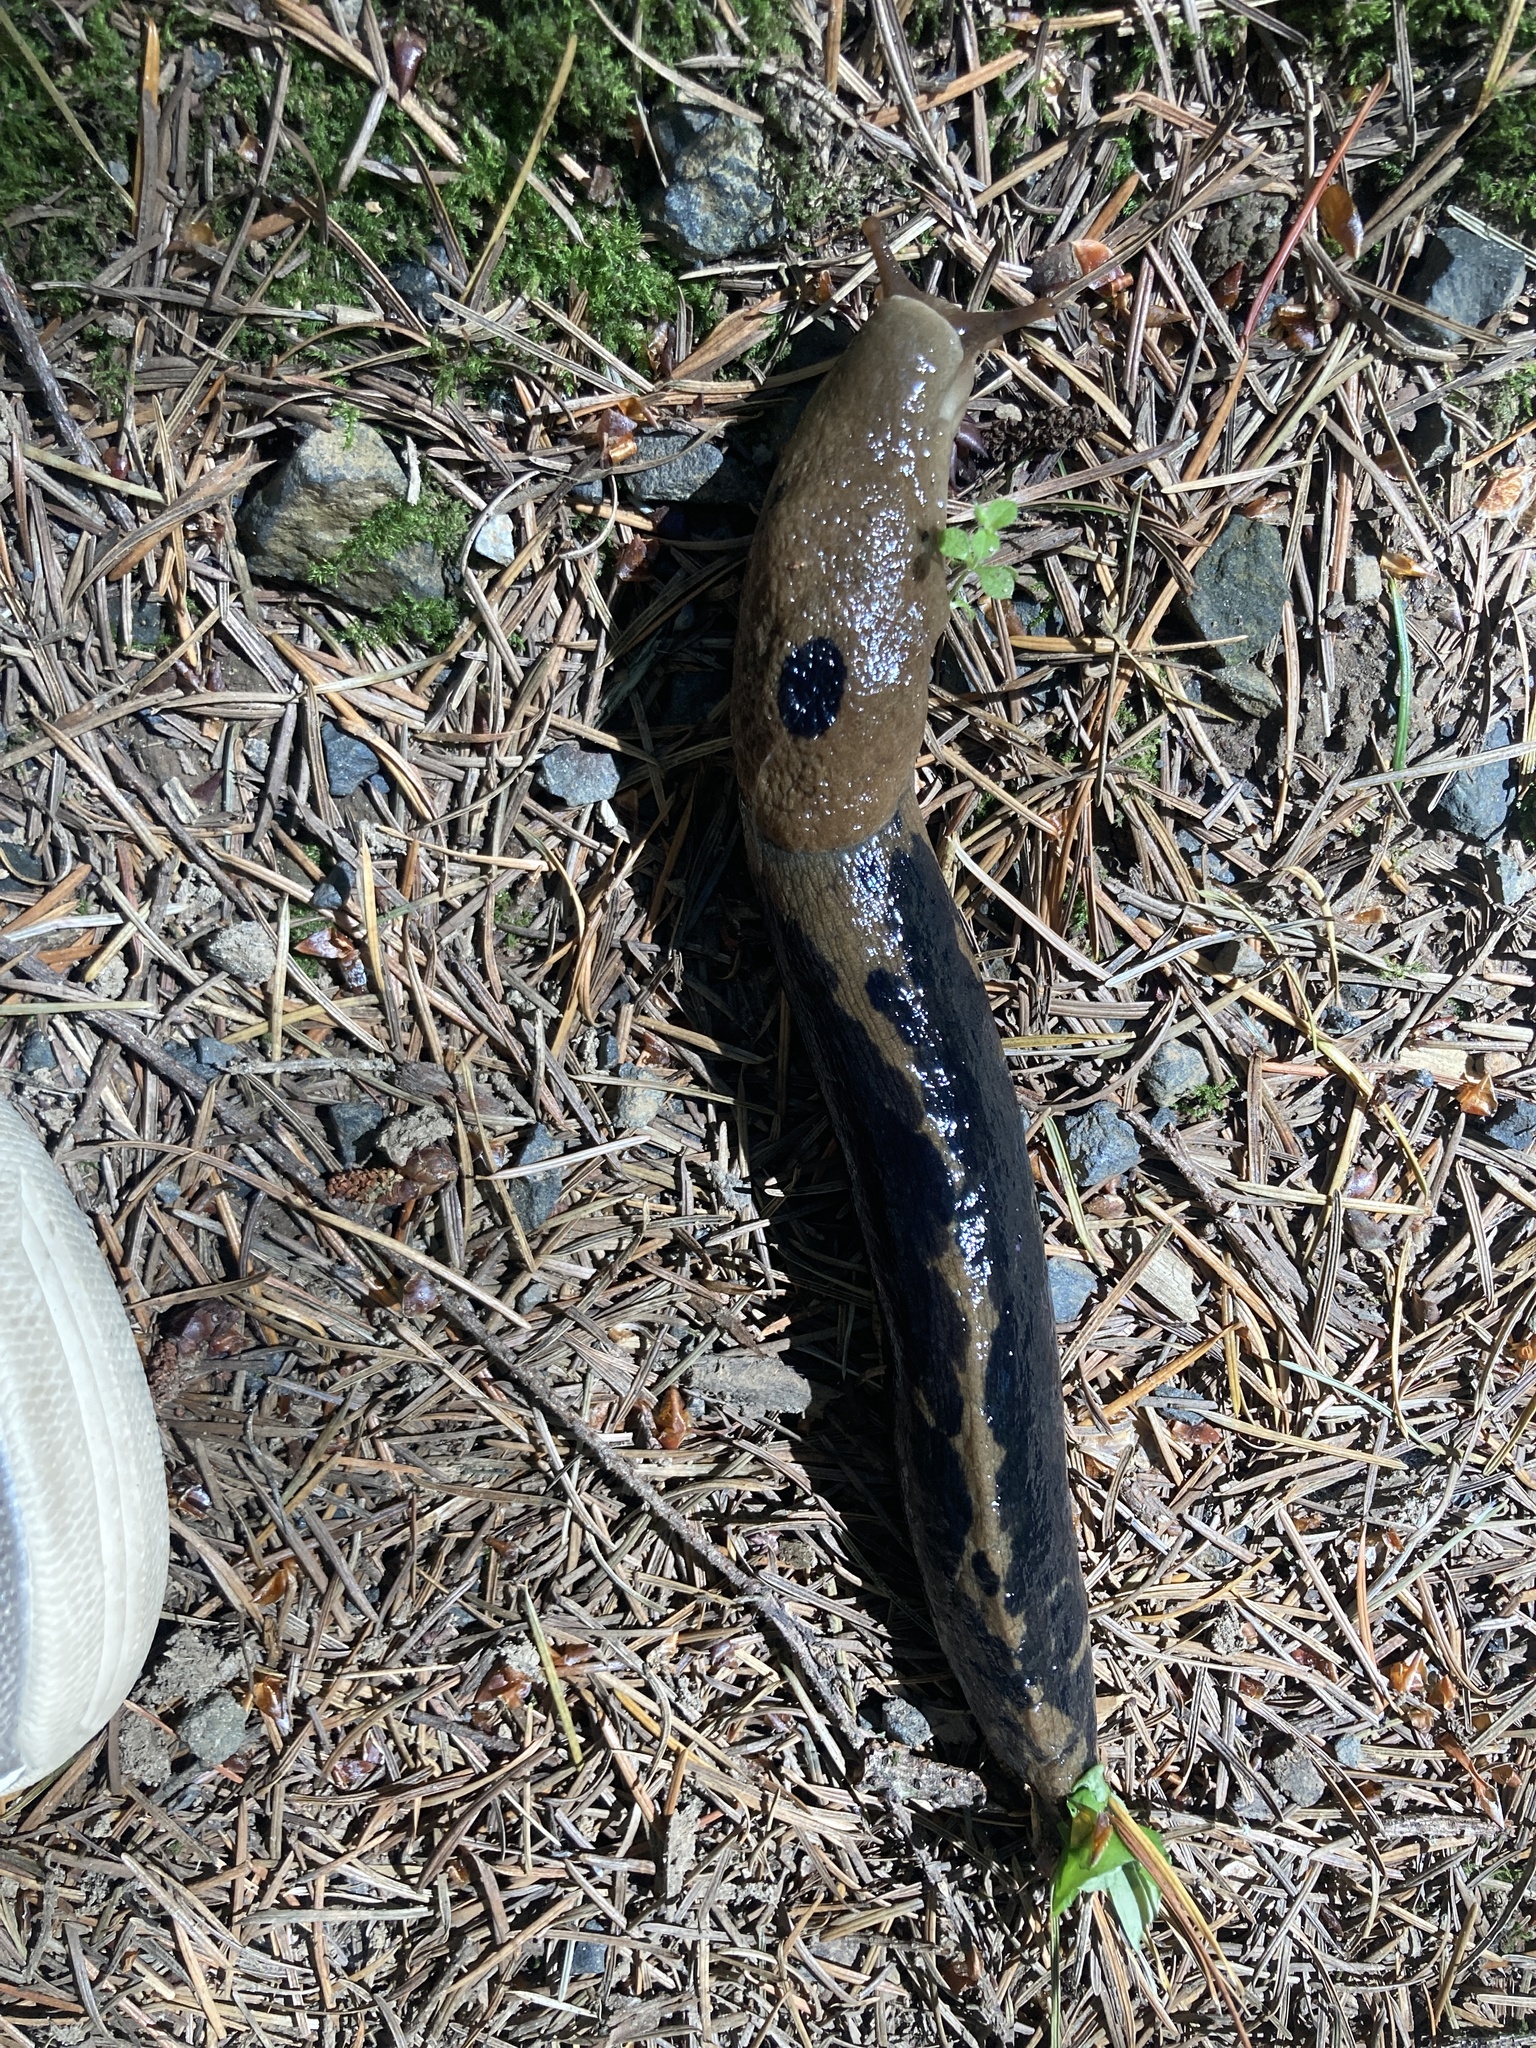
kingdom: Animalia
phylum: Mollusca
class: Gastropoda
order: Stylommatophora
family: Ariolimacidae
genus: Ariolimax
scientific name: Ariolimax columbianus
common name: Pacific banana slug
